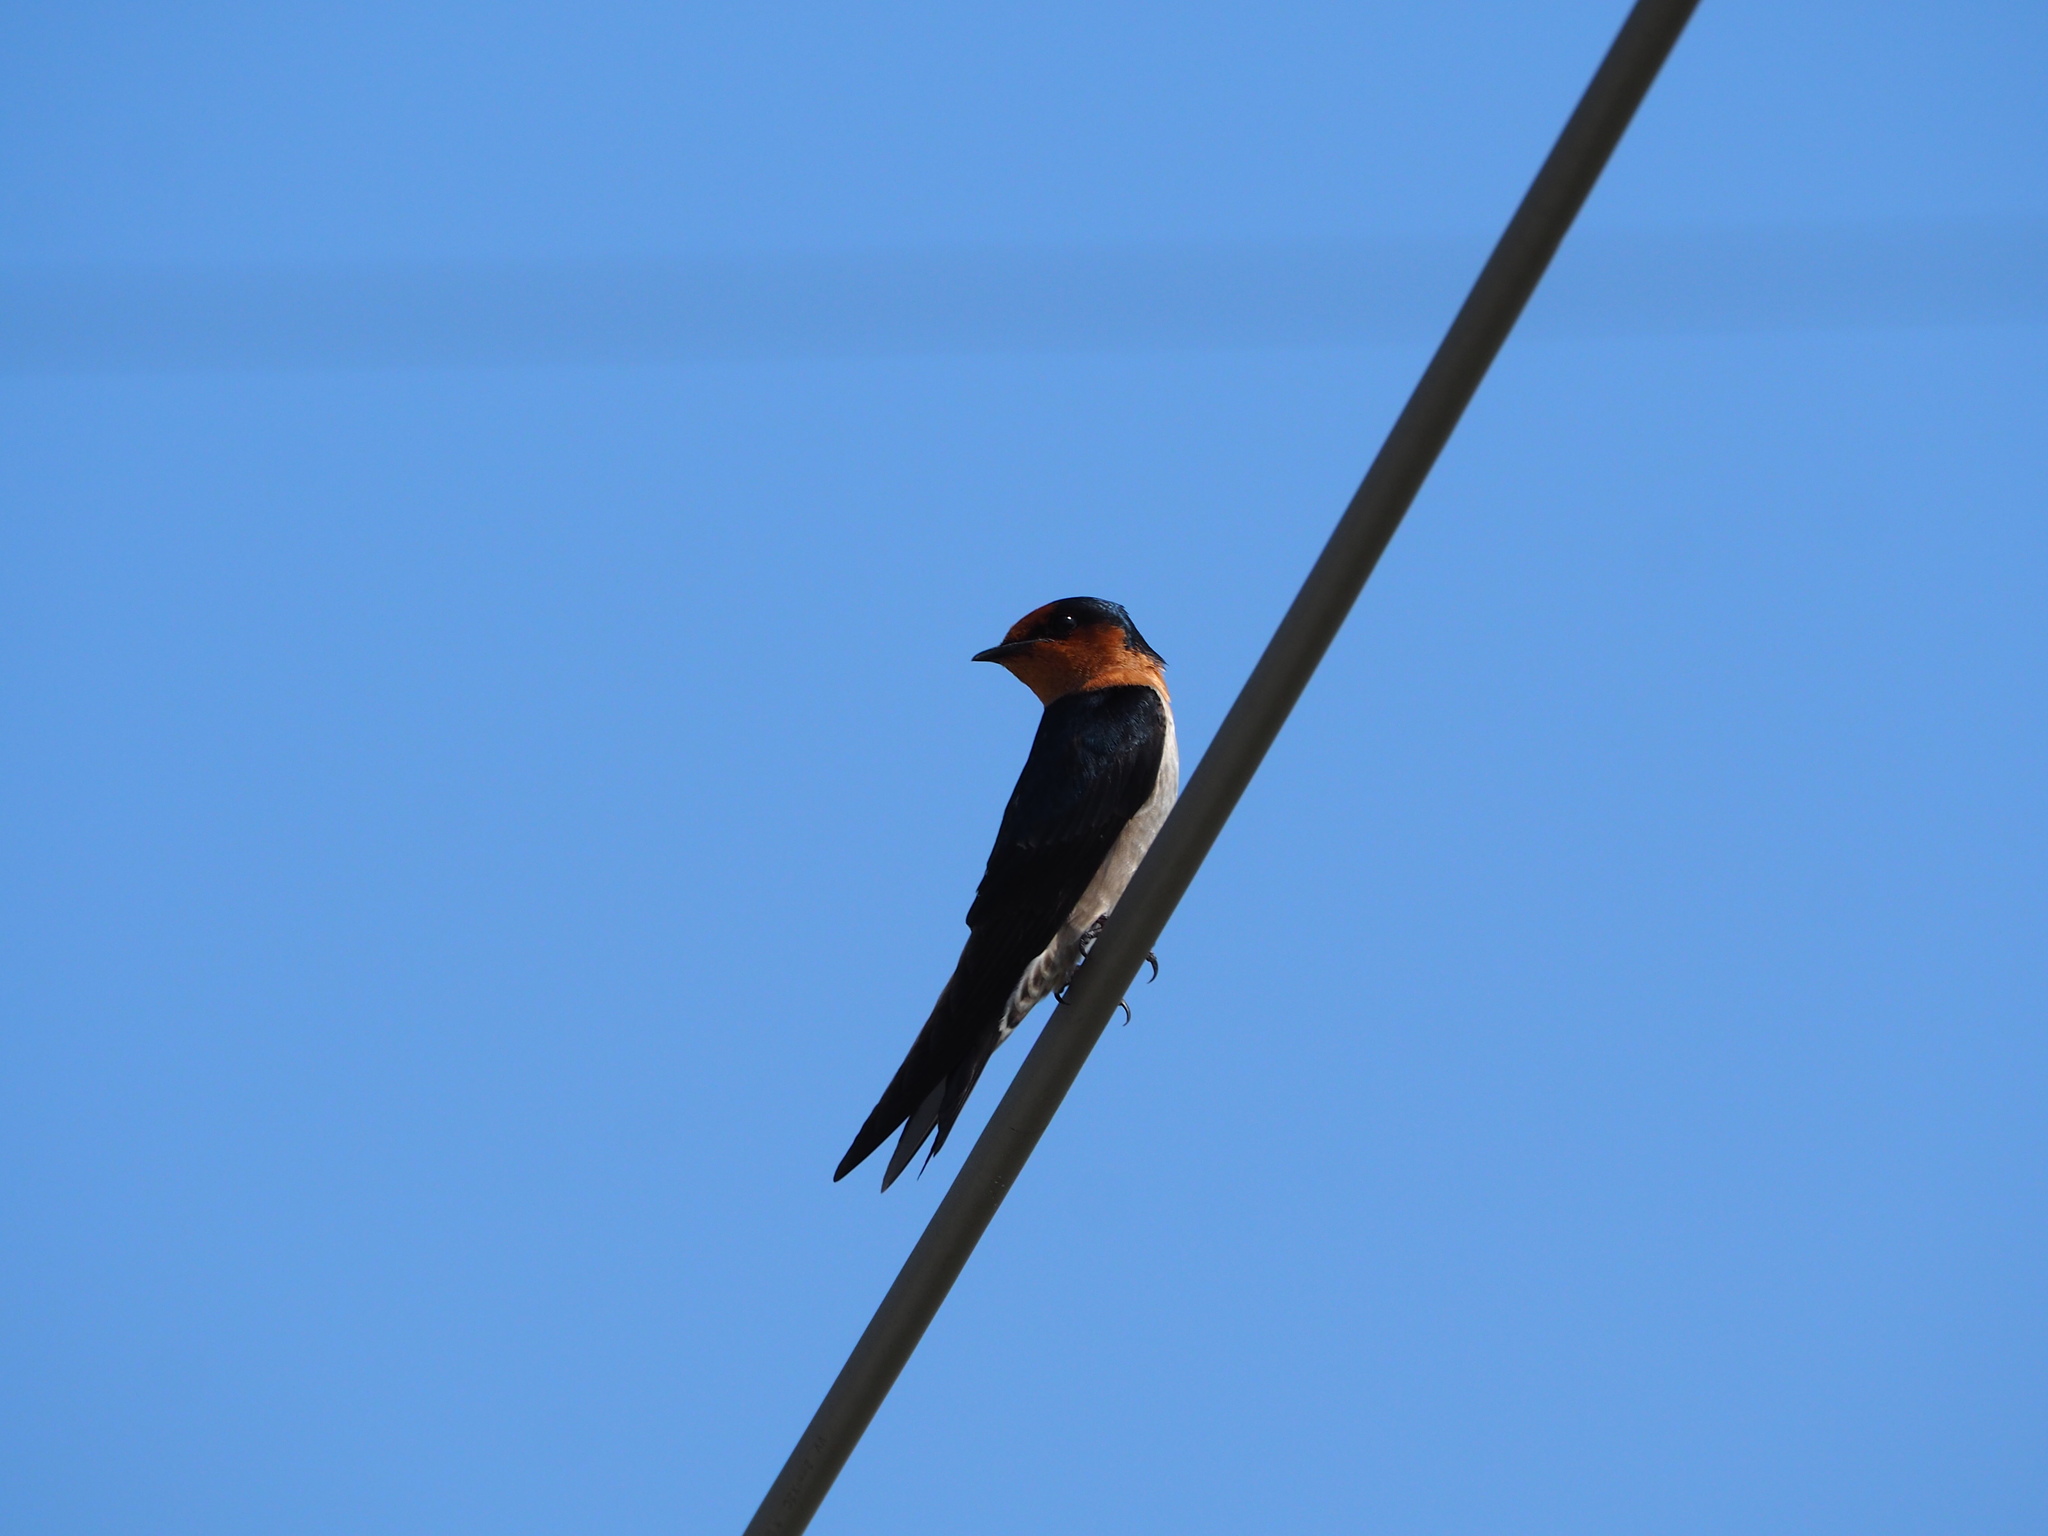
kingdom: Animalia
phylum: Chordata
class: Aves
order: Passeriformes
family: Hirundinidae
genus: Hirundo
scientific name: Hirundo tahitica
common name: Pacific swallow
